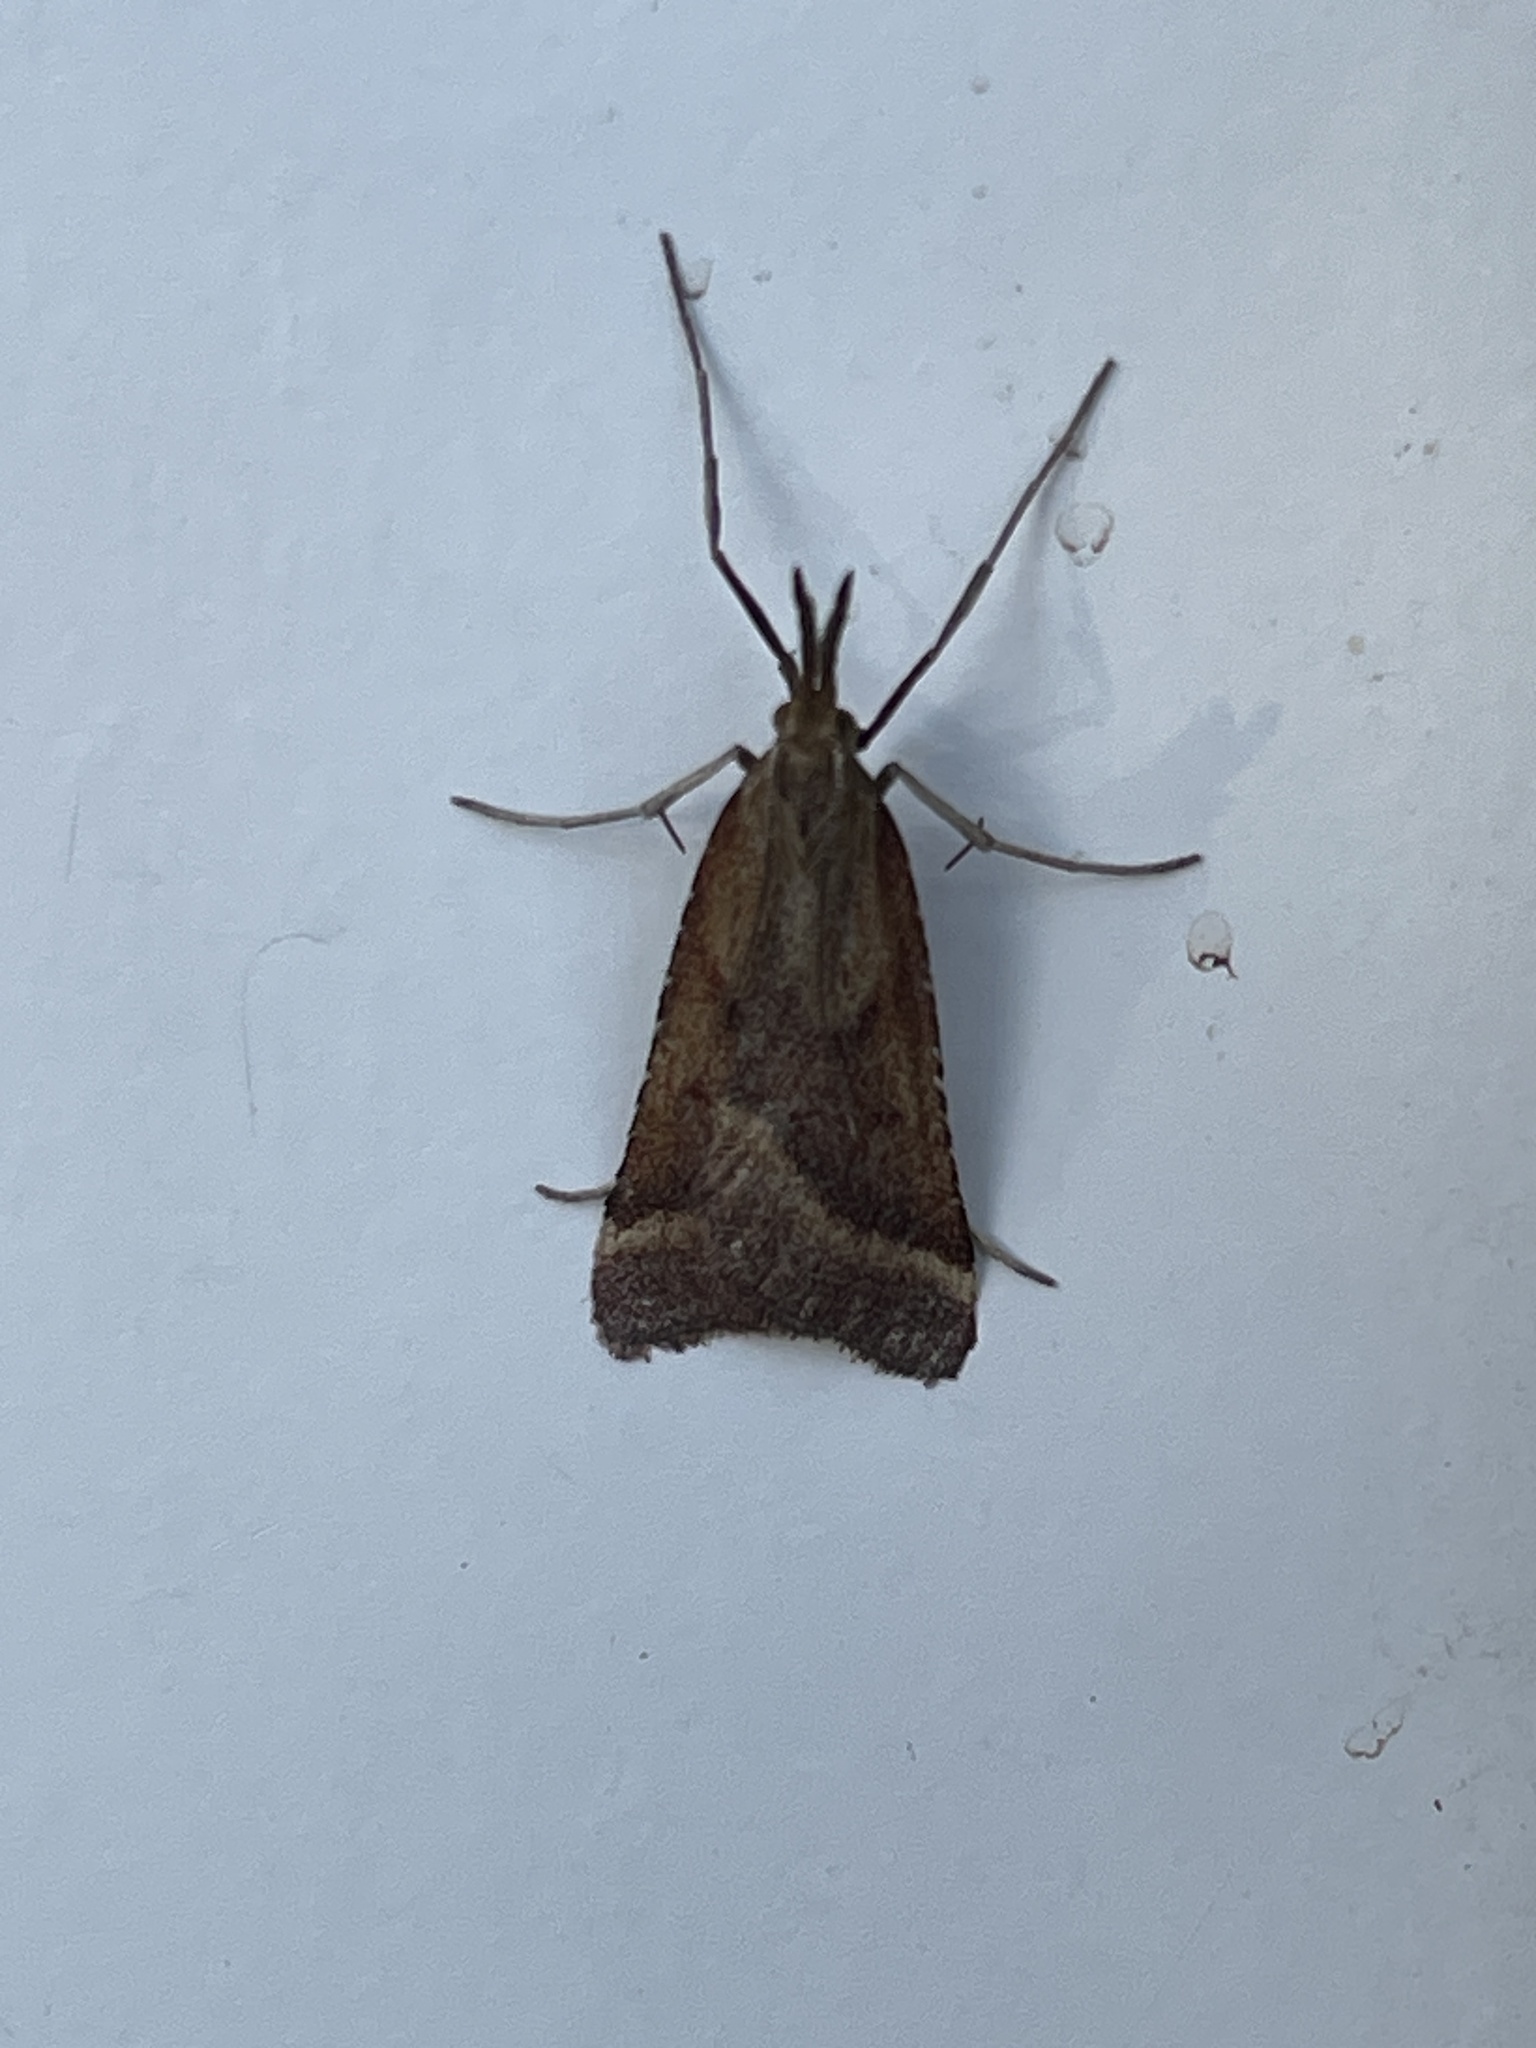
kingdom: Animalia
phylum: Arthropoda
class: Insecta
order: Lepidoptera
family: Pyralidae
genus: Synaphe
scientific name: Synaphe punctalis
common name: Long-legged tabby
